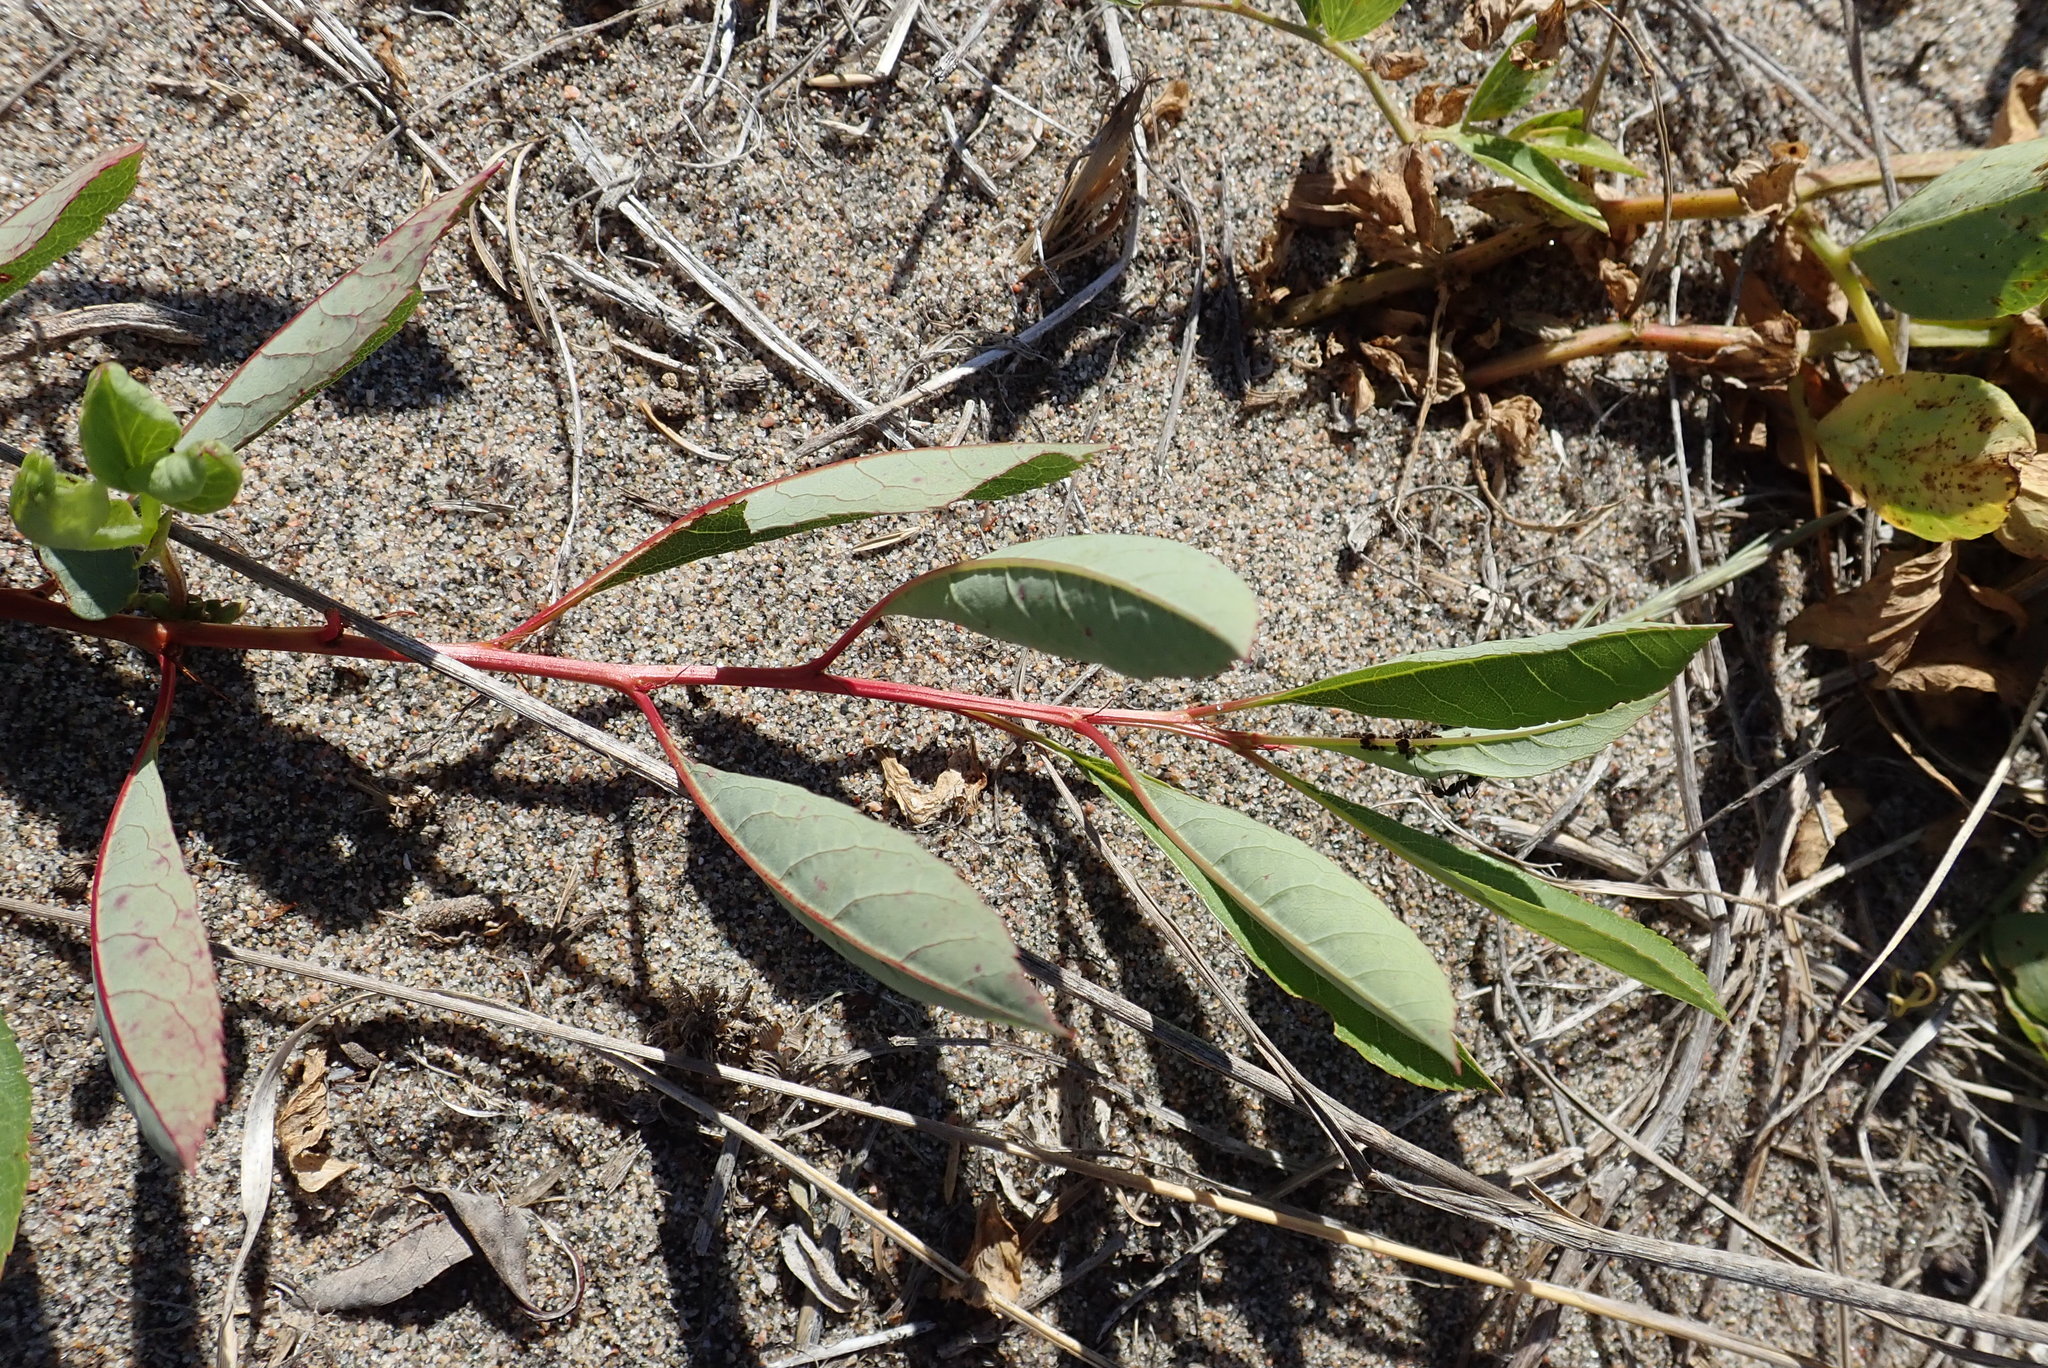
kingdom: Plantae
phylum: Tracheophyta
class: Magnoliopsida
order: Rosales
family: Rosaceae
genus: Prunus
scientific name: Prunus pumila
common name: Dwarf cherry
